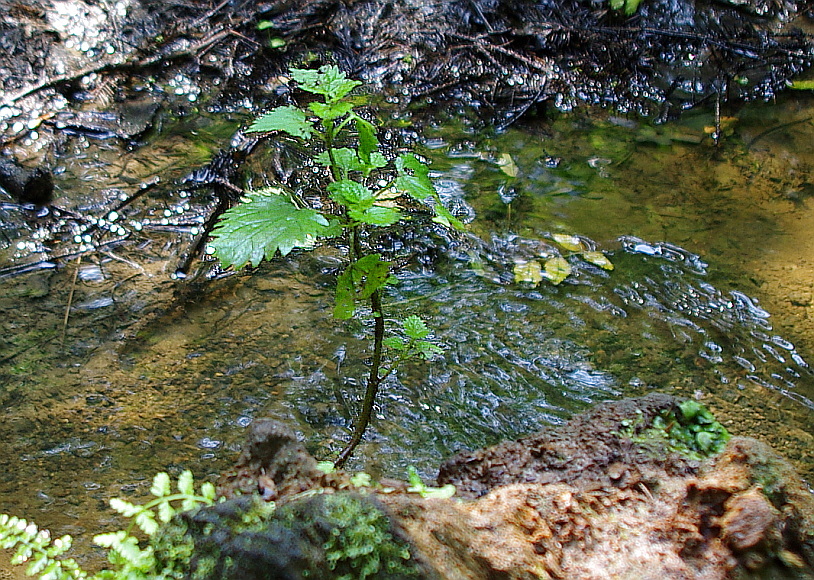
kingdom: Plantae
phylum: Tracheophyta
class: Magnoliopsida
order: Rosales
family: Urticaceae
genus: Urtica
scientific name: Urtica dioica
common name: Common nettle
